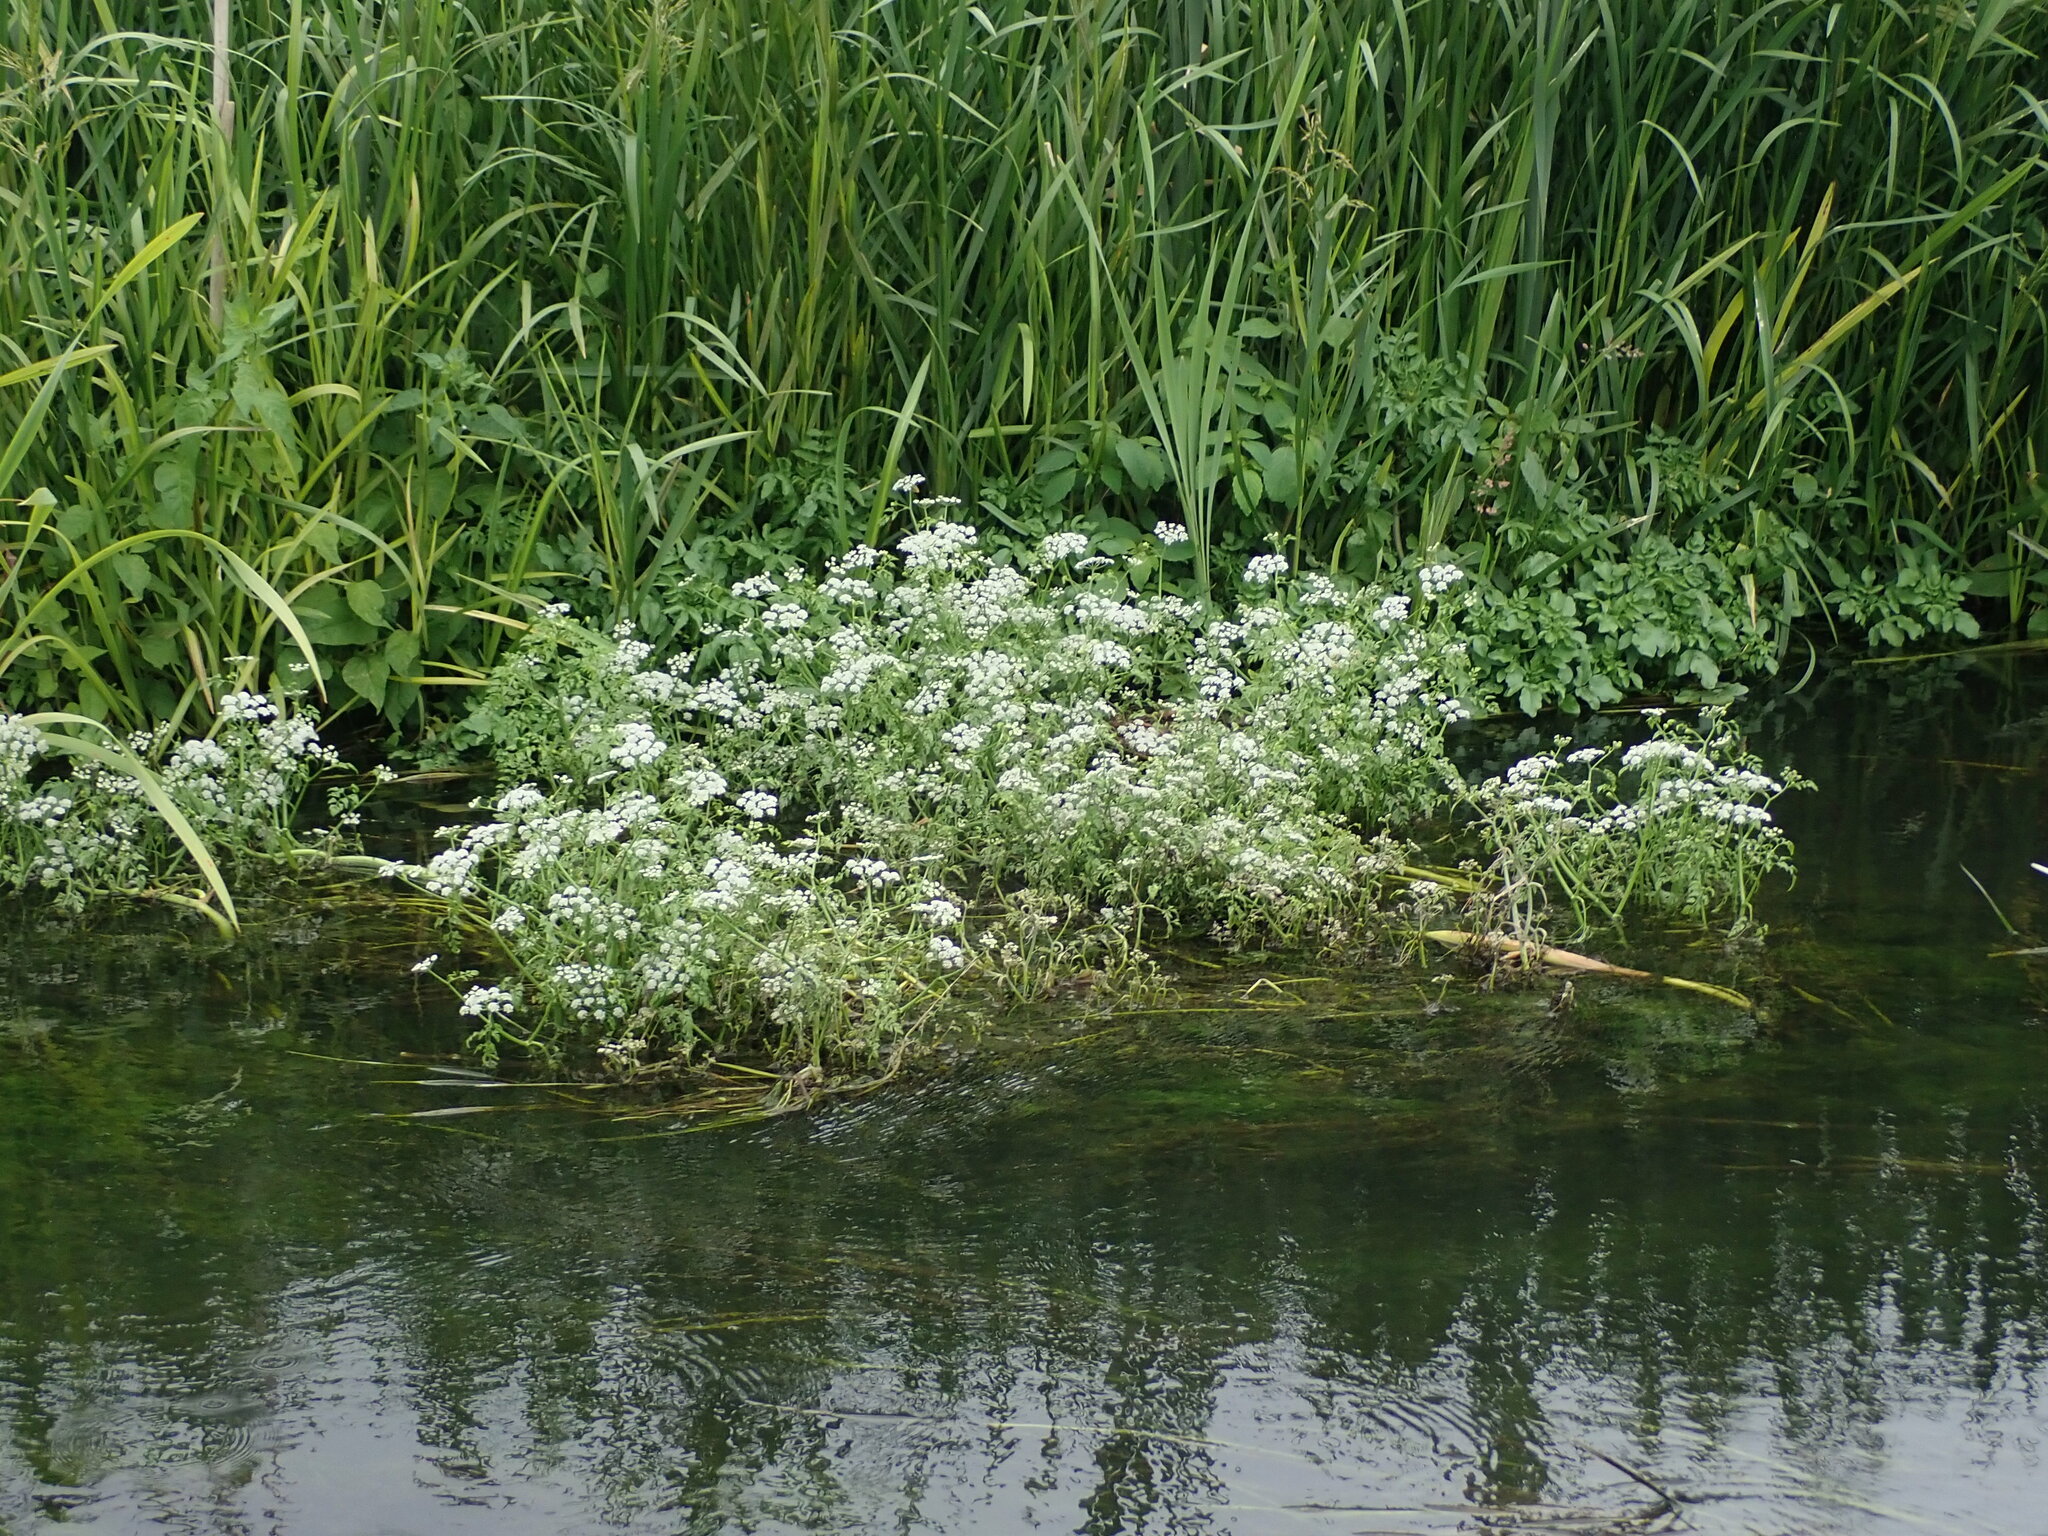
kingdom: Plantae
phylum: Tracheophyta
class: Magnoliopsida
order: Apiales
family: Apiaceae
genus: Oenanthe
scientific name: Oenanthe fluviatilis
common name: River water-dropwort
